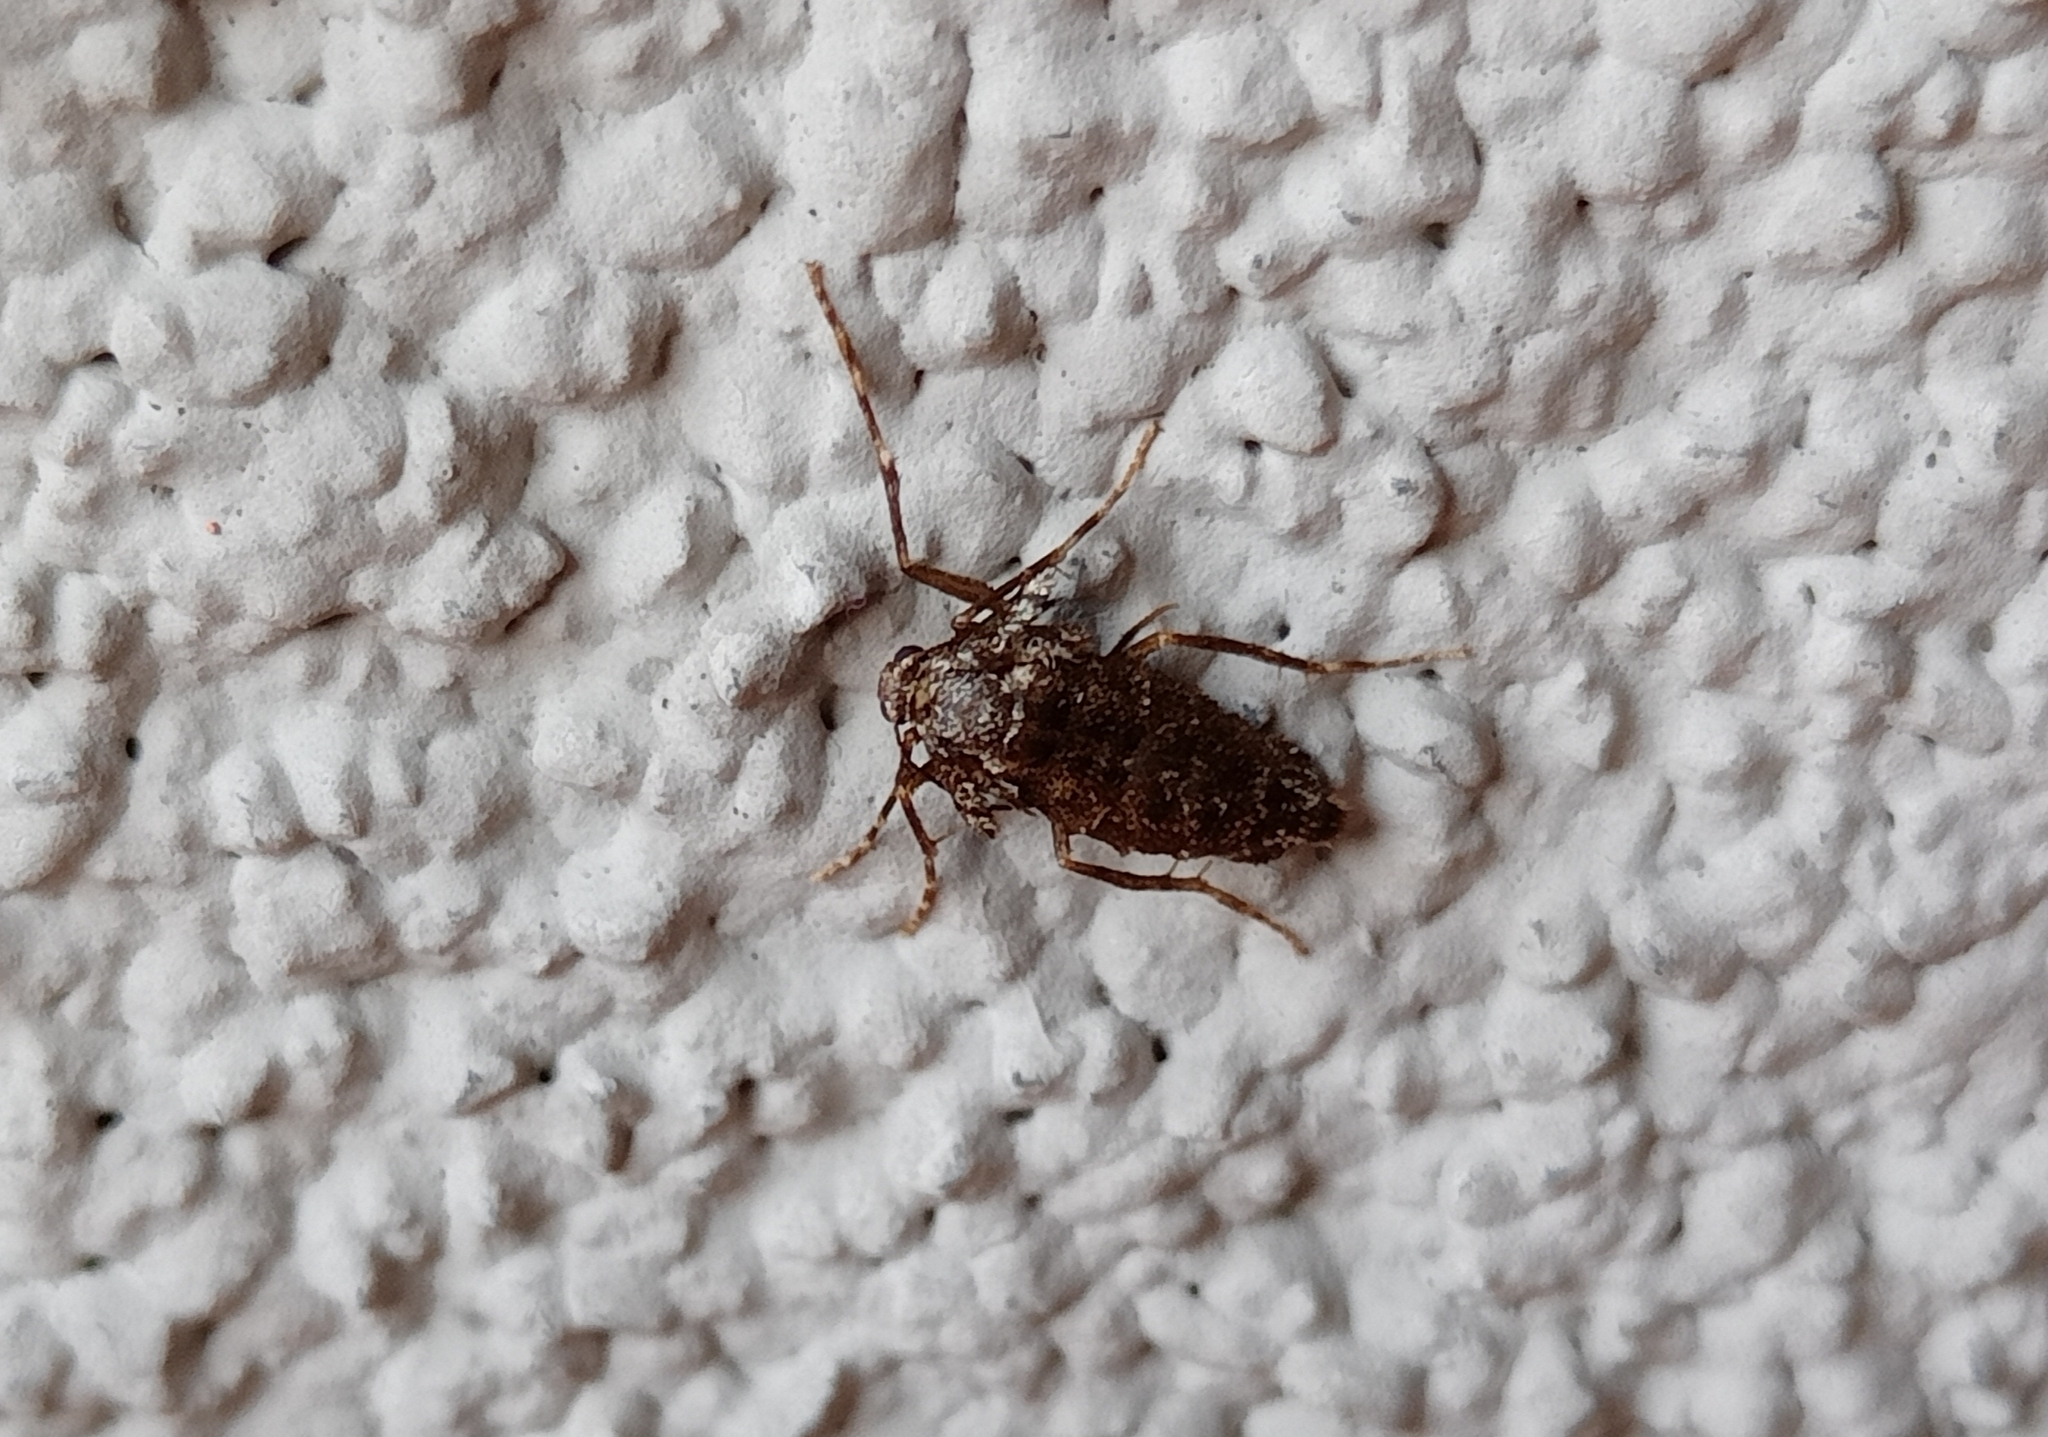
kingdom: Animalia
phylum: Arthropoda
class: Insecta
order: Lepidoptera
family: Geometridae
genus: Operophtera
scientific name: Operophtera brumata
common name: Winter moth
